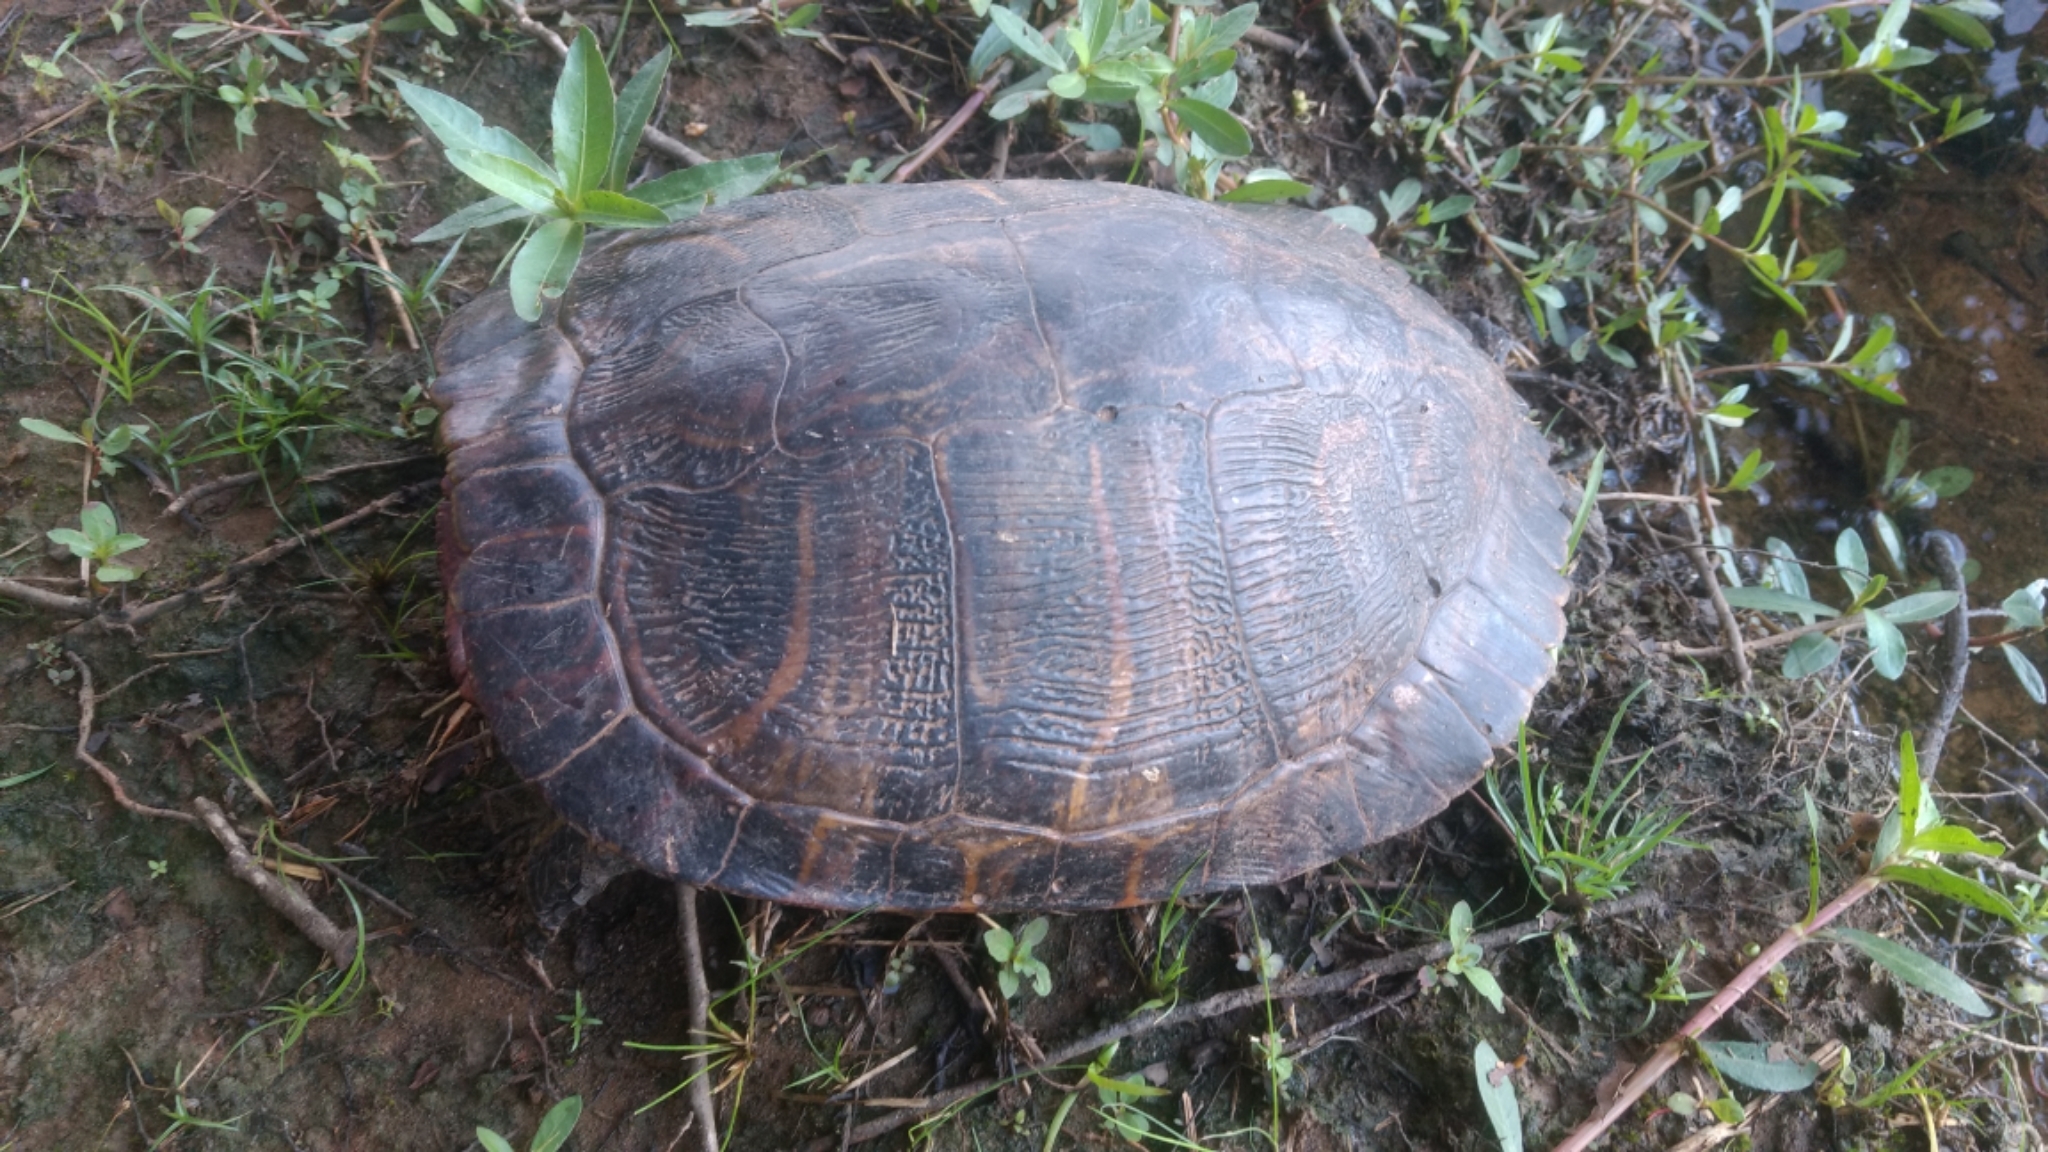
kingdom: Animalia
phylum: Chordata
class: Testudines
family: Emydidae
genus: Trachemys
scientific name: Trachemys scripta
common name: Slider
